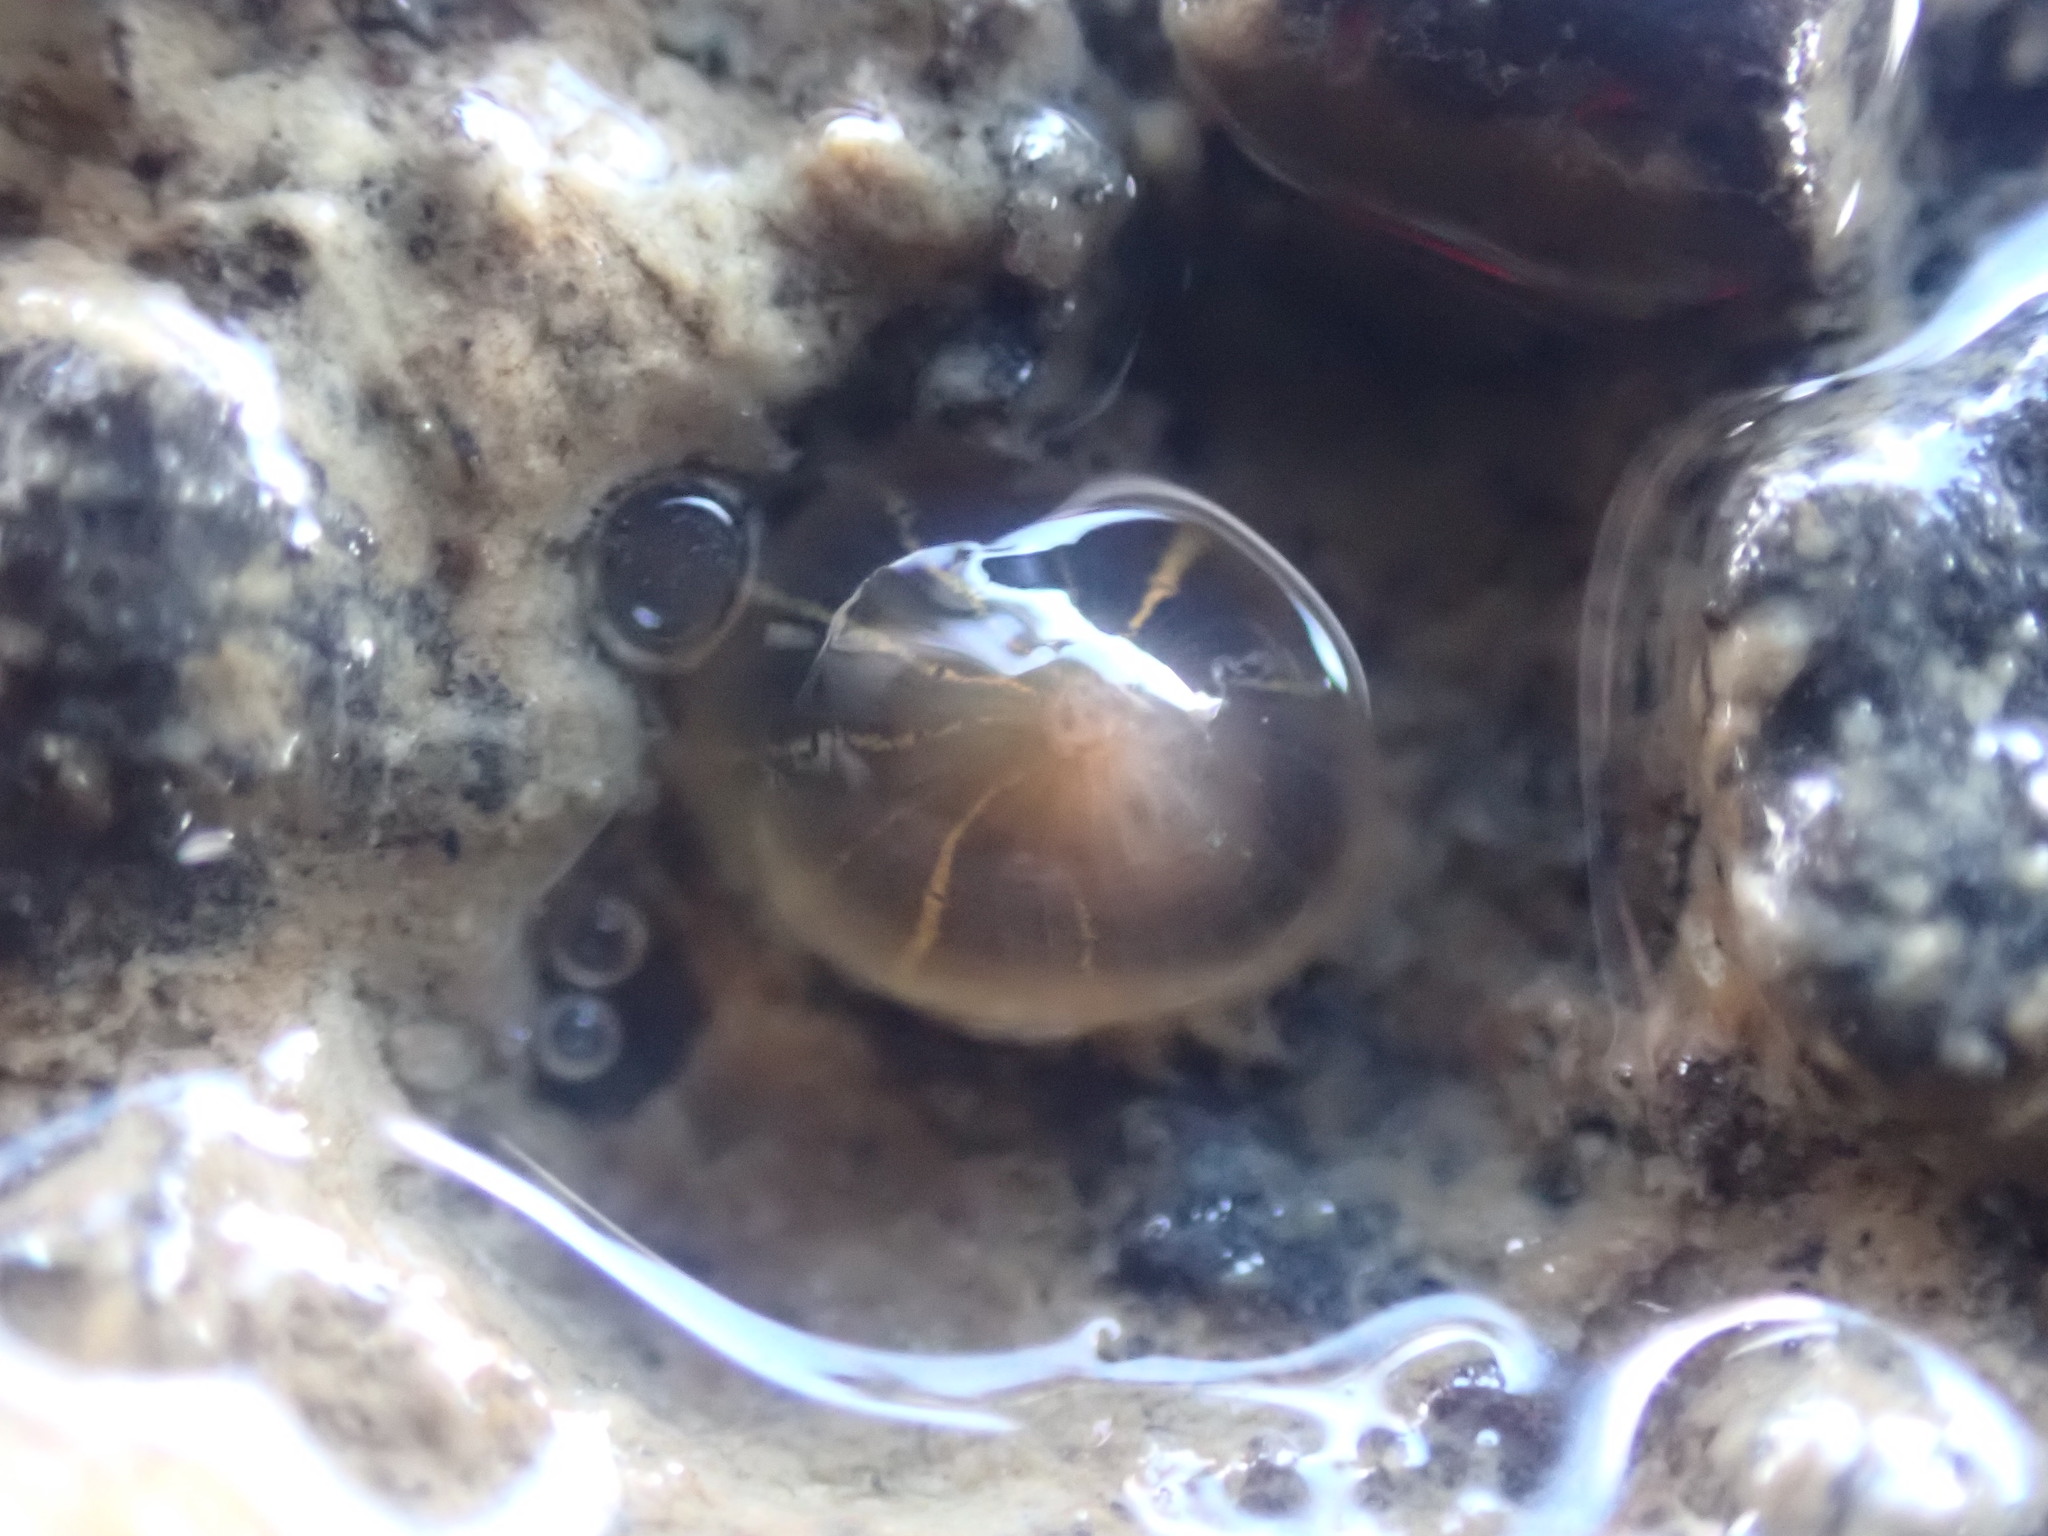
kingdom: Animalia
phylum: Cnidaria
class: Anthozoa
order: Actiniaria
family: Diadumenidae
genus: Diadumene
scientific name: Diadumene lineata
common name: Orange-striped anemone
